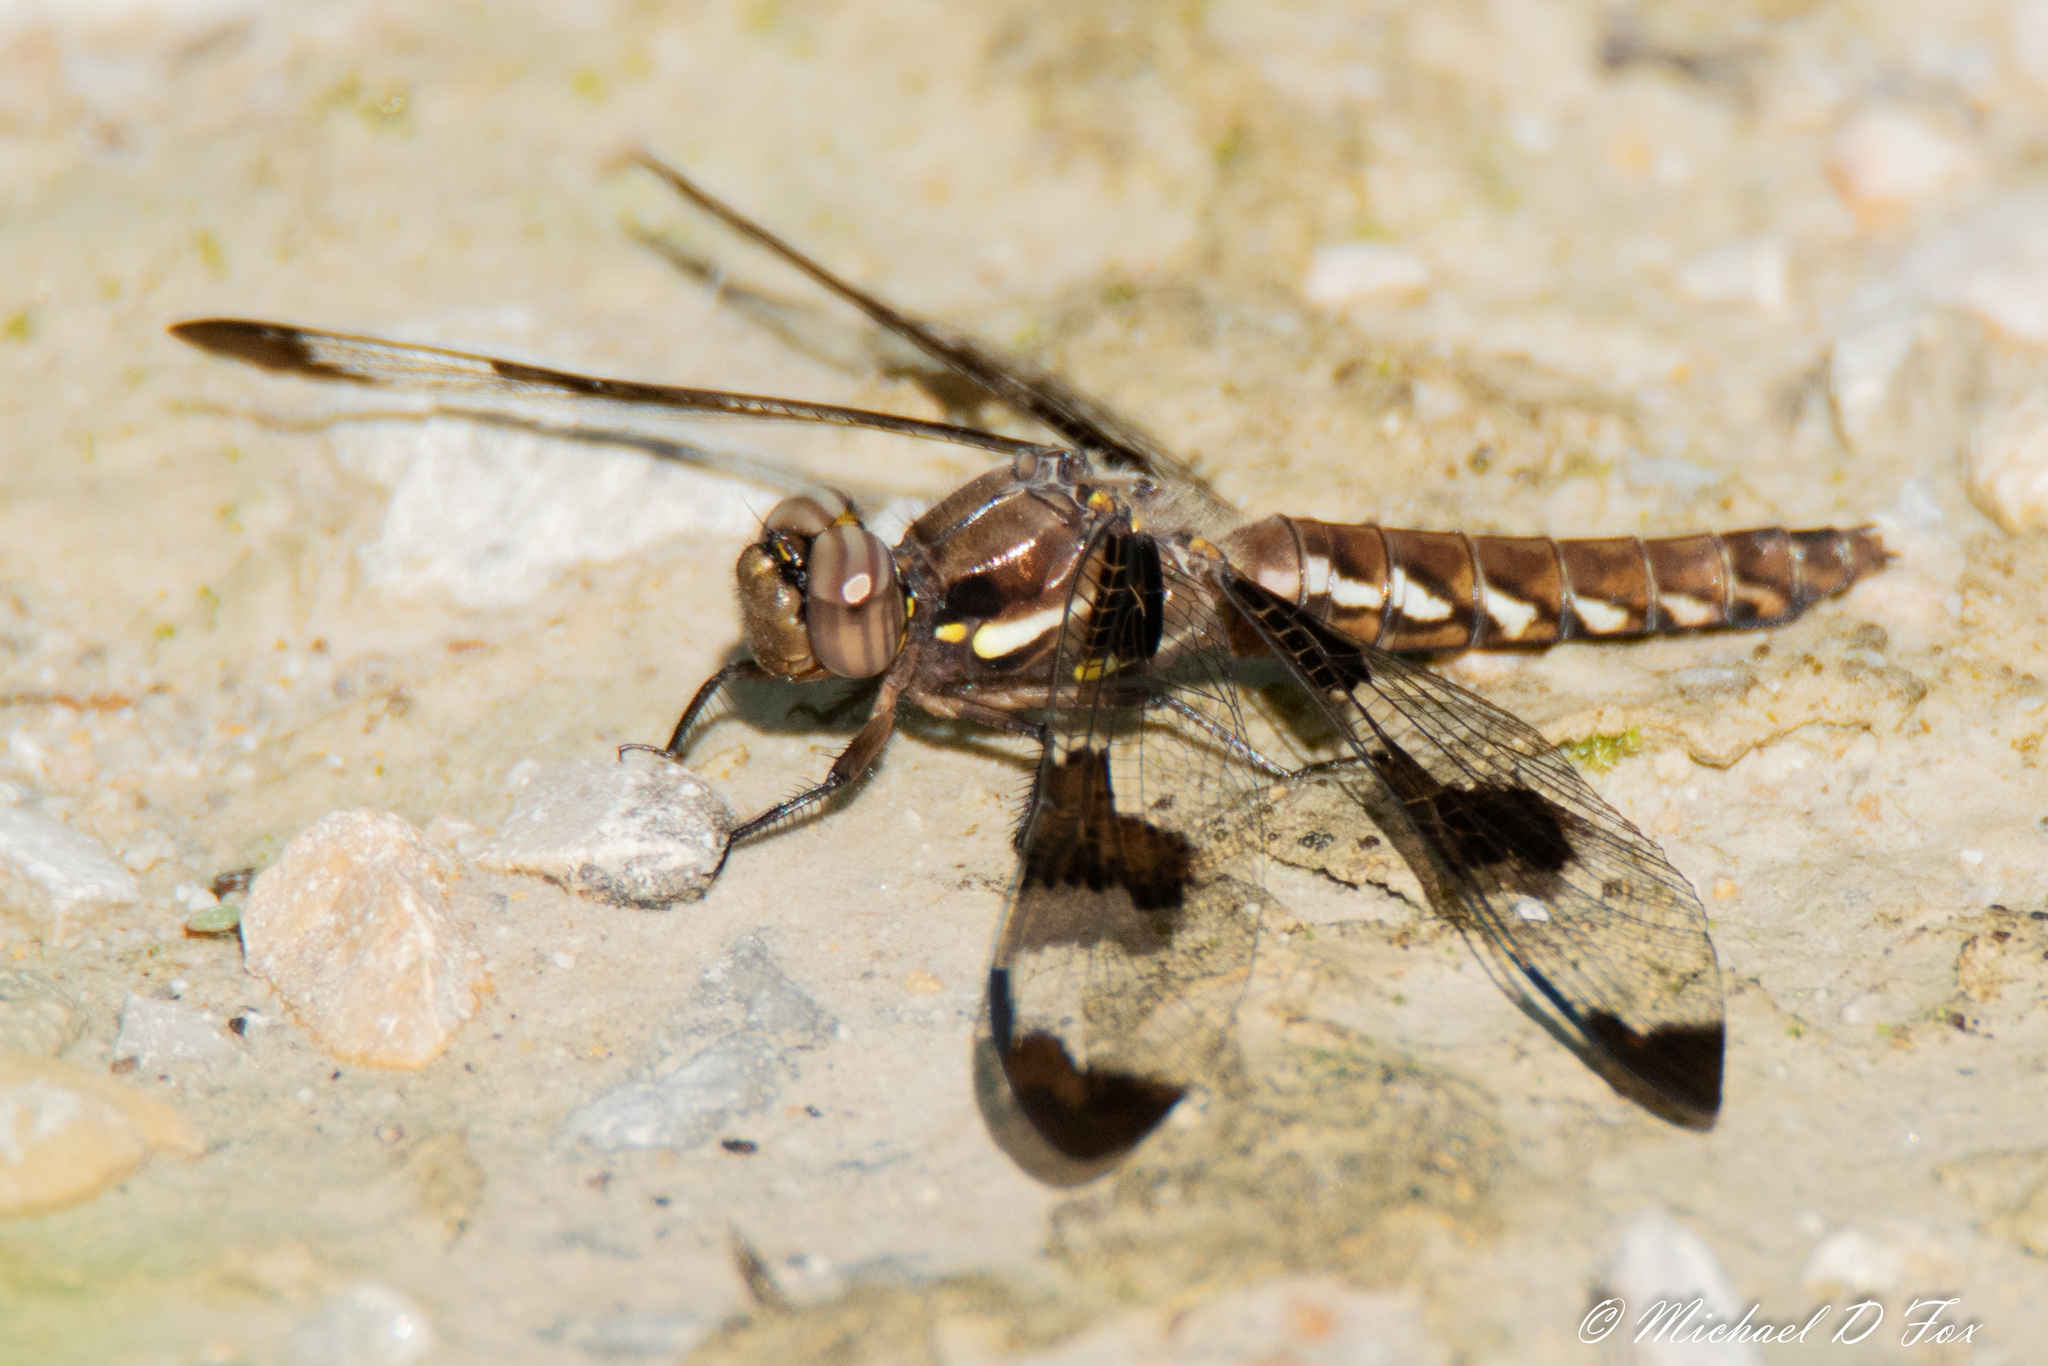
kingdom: Animalia
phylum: Arthropoda
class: Insecta
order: Odonata
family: Libellulidae
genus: Plathemis
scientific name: Plathemis lydia
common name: Common whitetail
